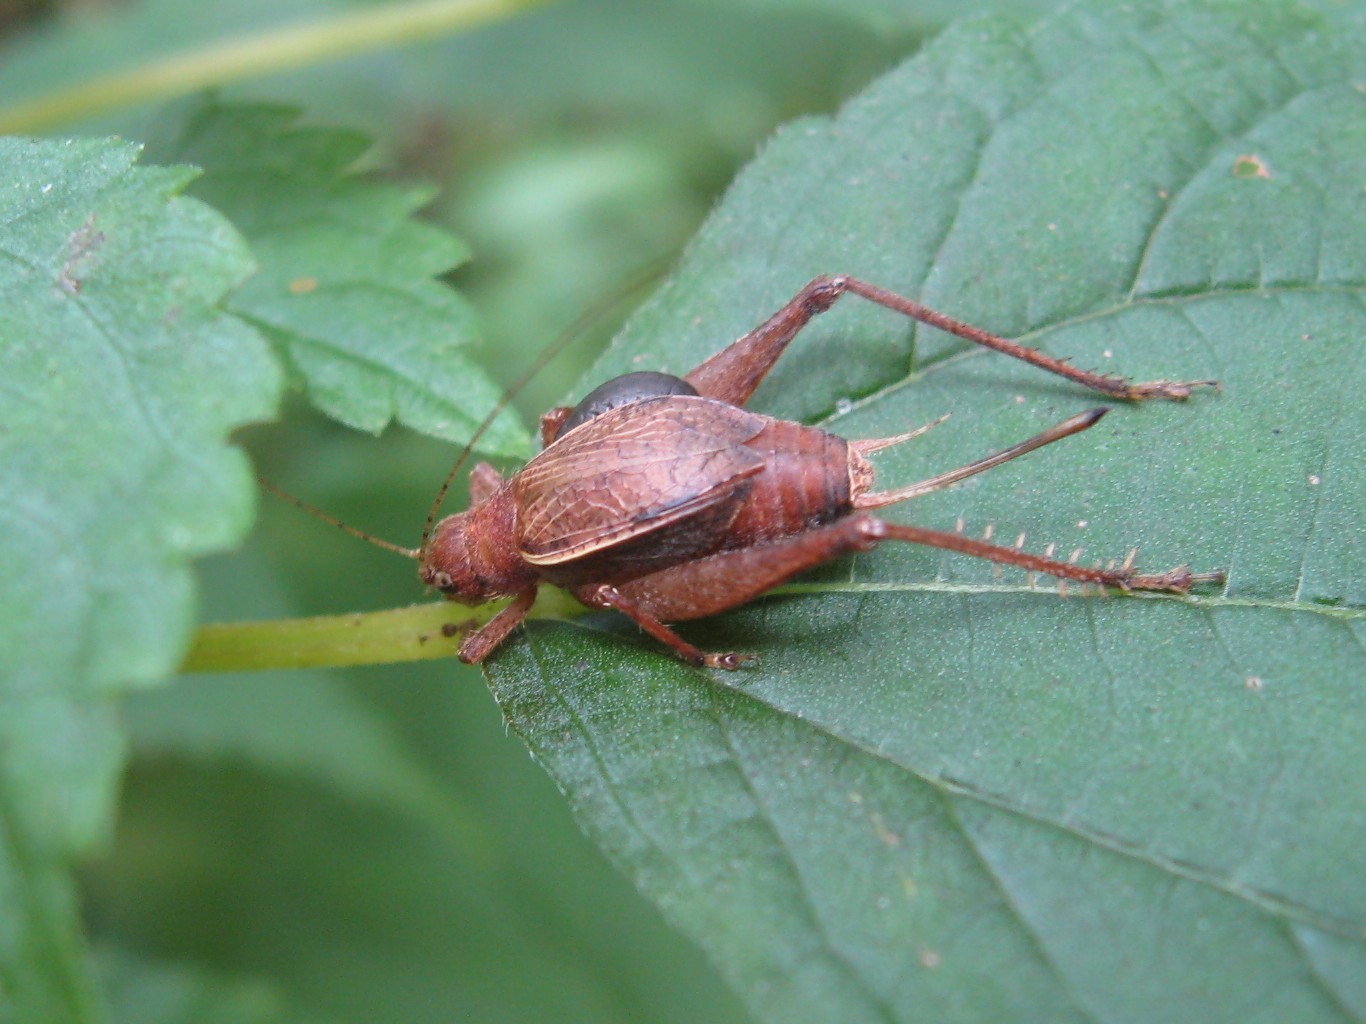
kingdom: Animalia
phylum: Arthropoda
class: Insecta
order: Orthoptera
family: Gryllidae
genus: Hapithus
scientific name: Hapithus agitator
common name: Restless bush cricket
